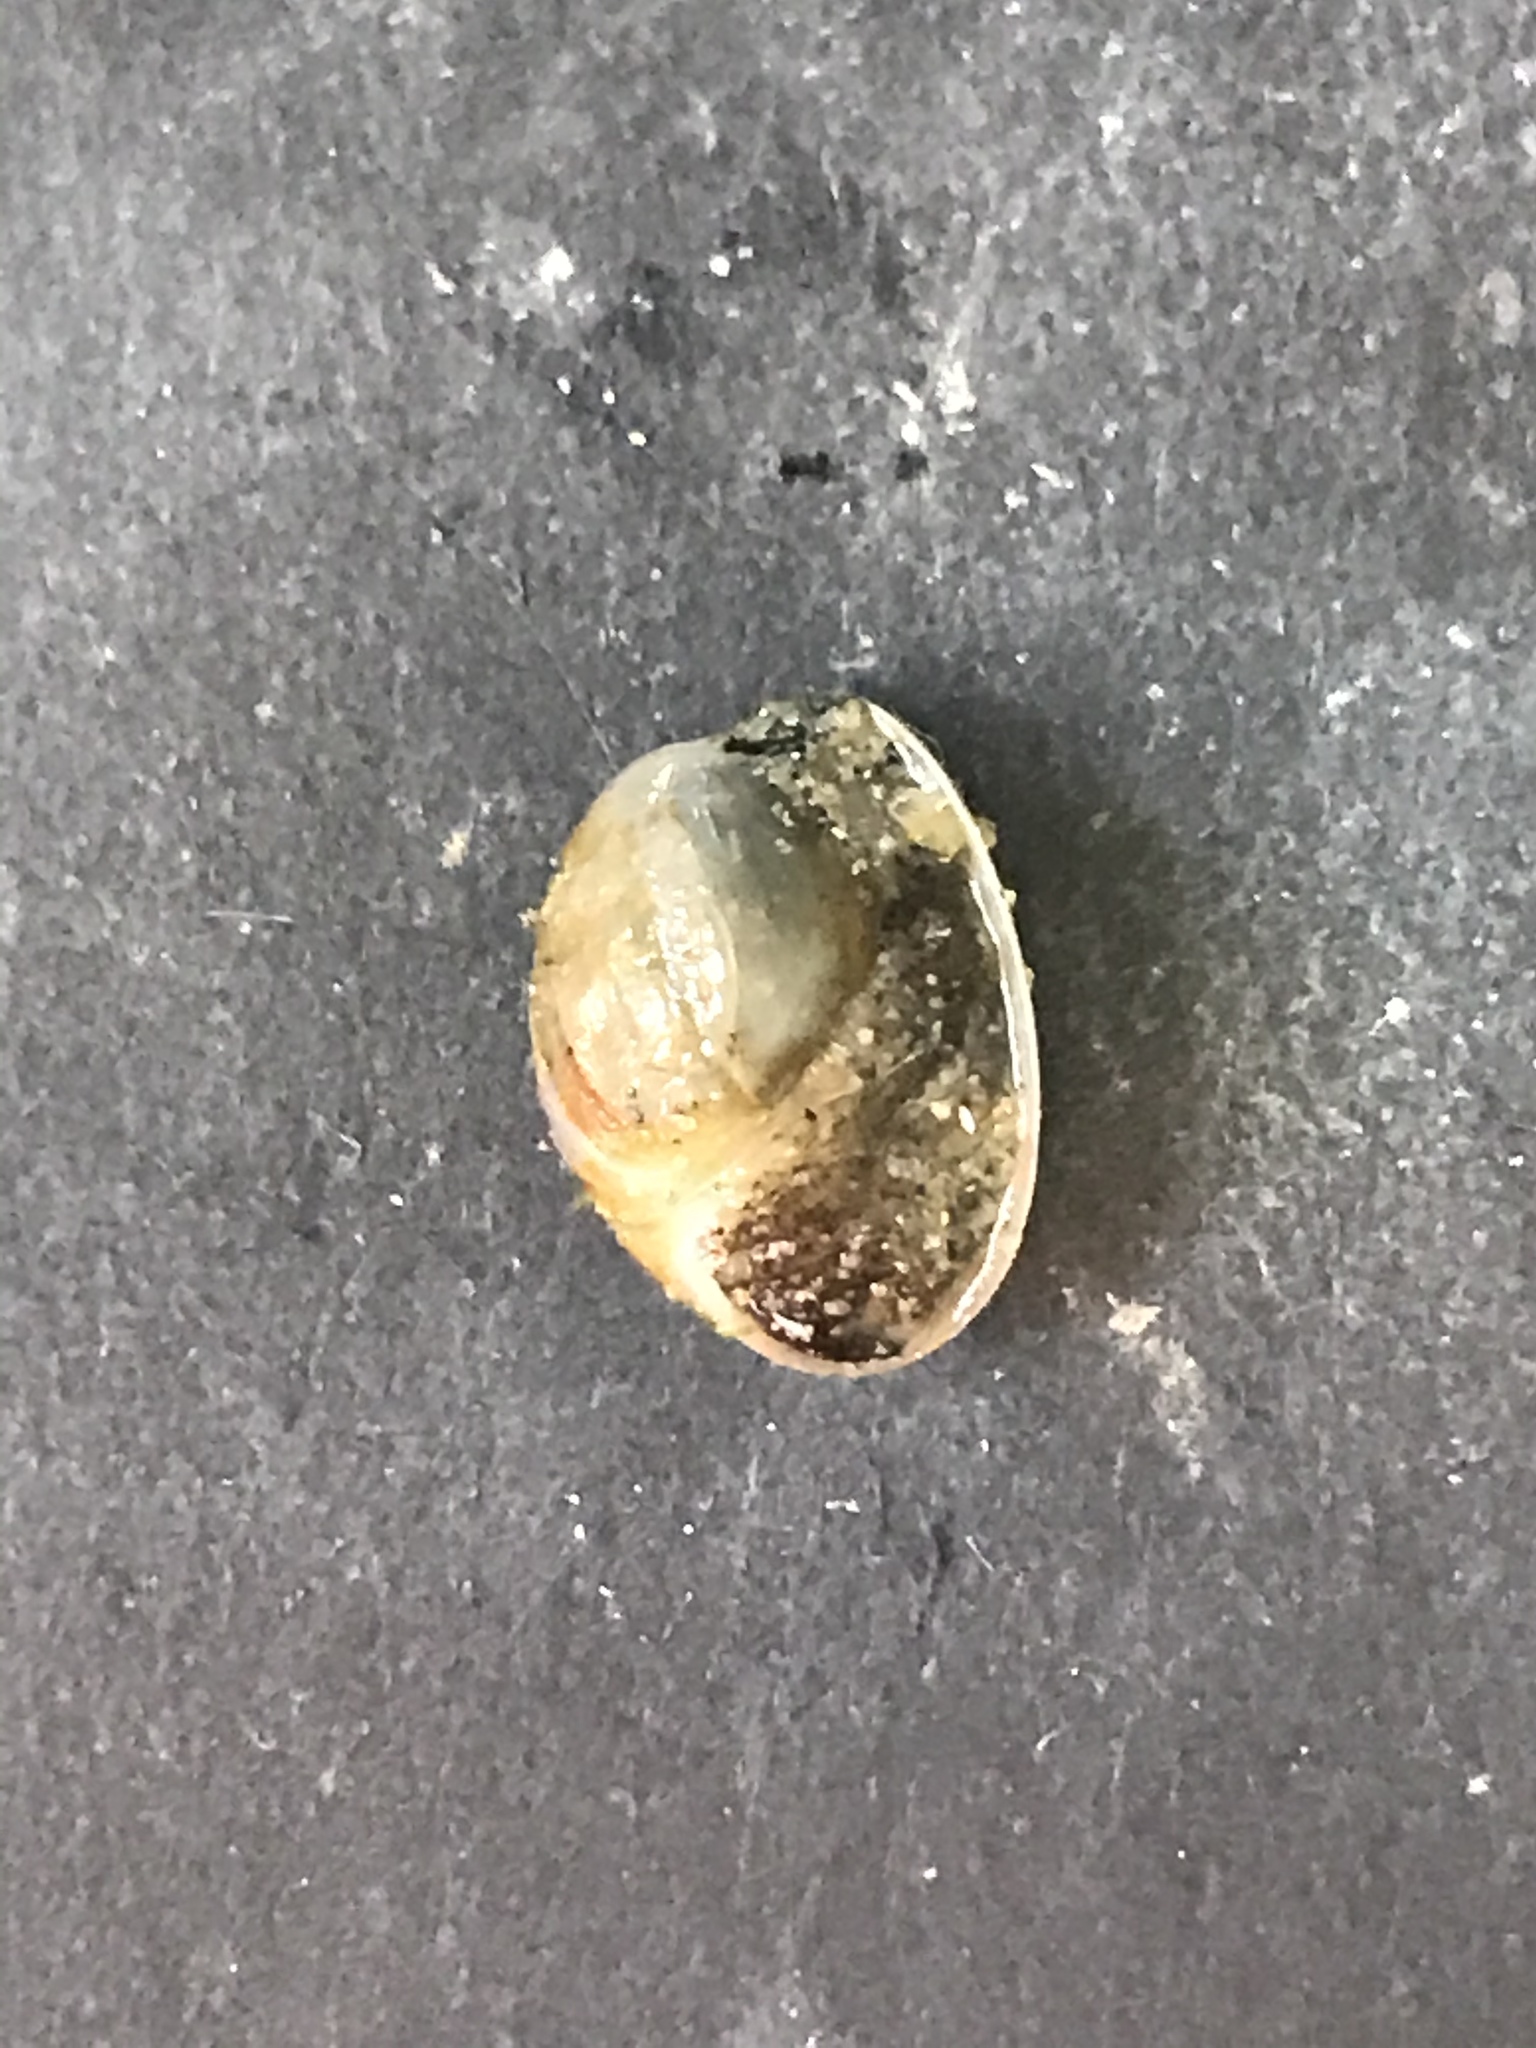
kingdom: Animalia
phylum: Mollusca
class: Gastropoda
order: Cephalaspidea
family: Haminoeidae
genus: Haloa
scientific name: Haloa japonica
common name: Japanese bubble snail
